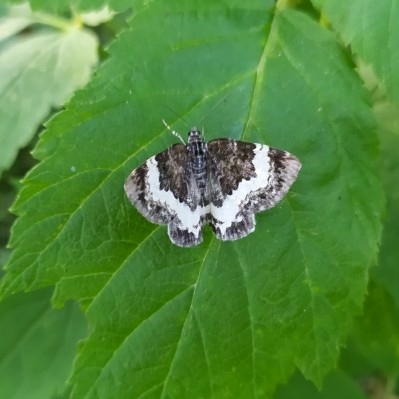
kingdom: Animalia
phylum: Arthropoda
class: Insecta
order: Lepidoptera
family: Geometridae
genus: Spargania
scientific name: Spargania luctuata
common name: White-banded carpet
